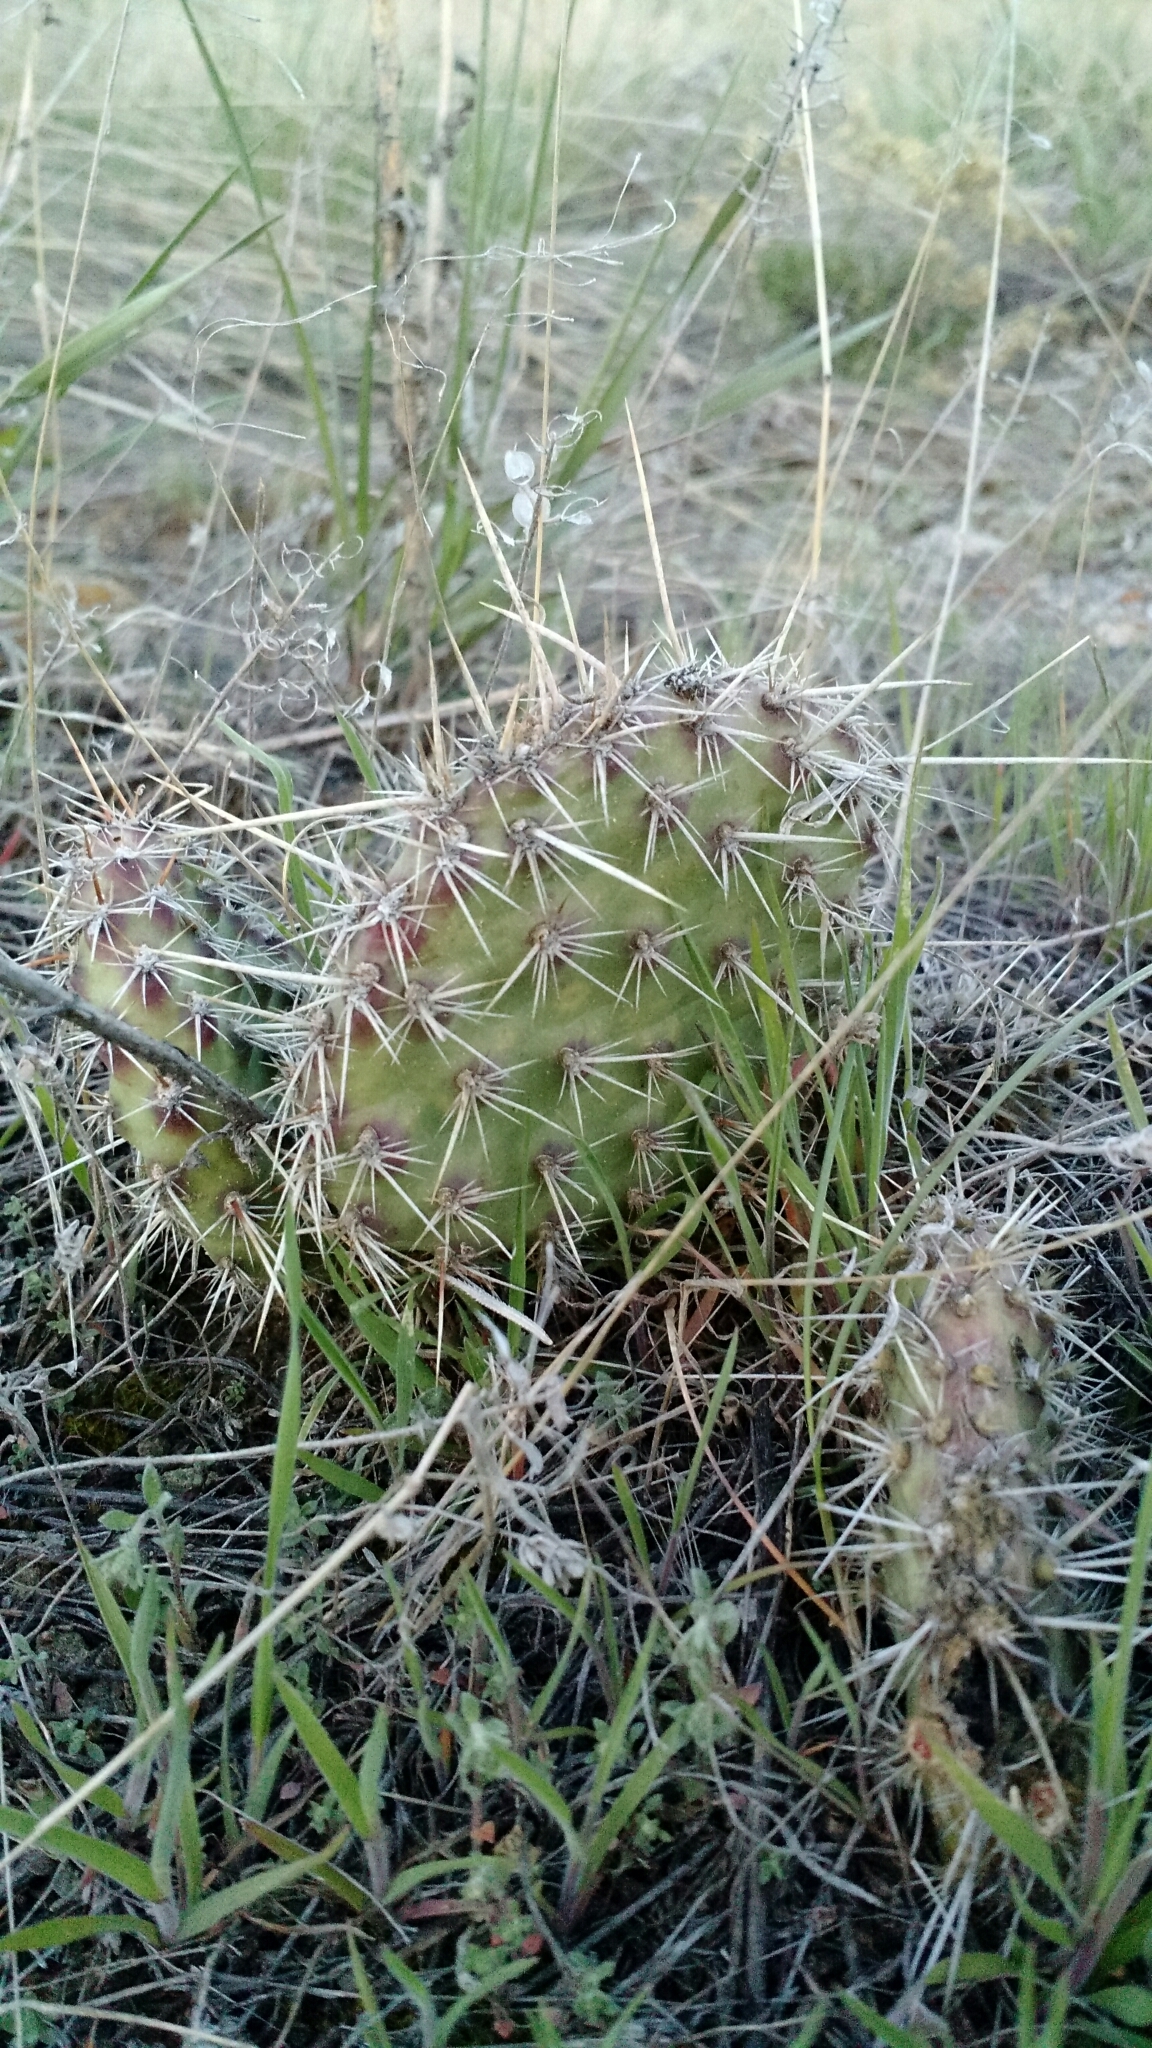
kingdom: Plantae
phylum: Tracheophyta
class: Magnoliopsida
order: Caryophyllales
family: Cactaceae
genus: Opuntia
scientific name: Opuntia polyacantha
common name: Plains prickly-pear
